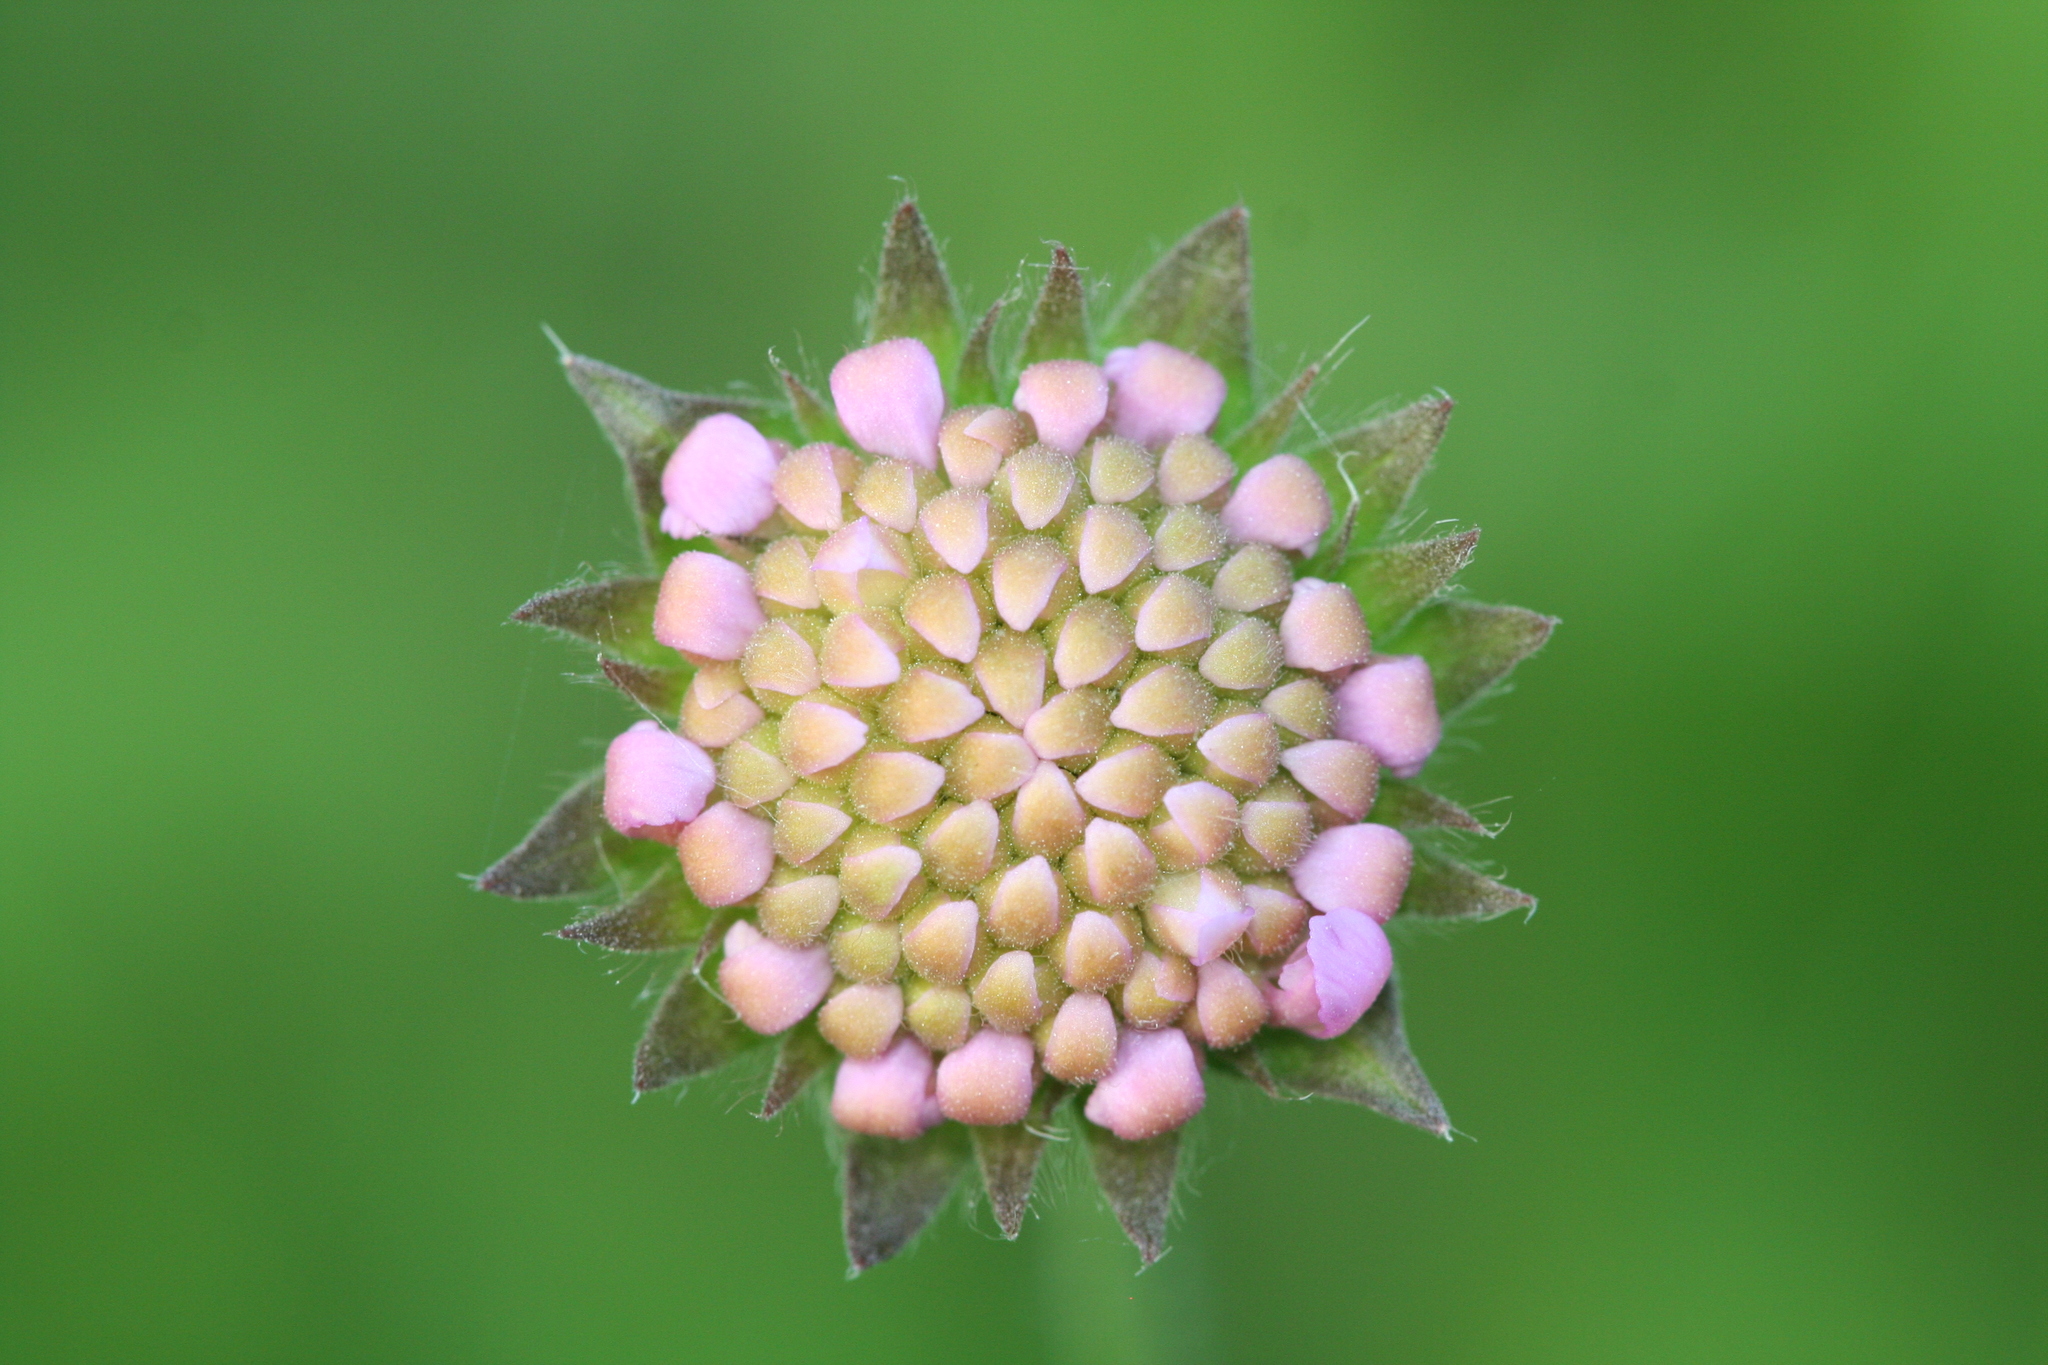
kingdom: Plantae
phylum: Tracheophyta
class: Magnoliopsida
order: Dipsacales
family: Caprifoliaceae
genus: Knautia
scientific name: Knautia arvensis
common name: Field scabiosa
